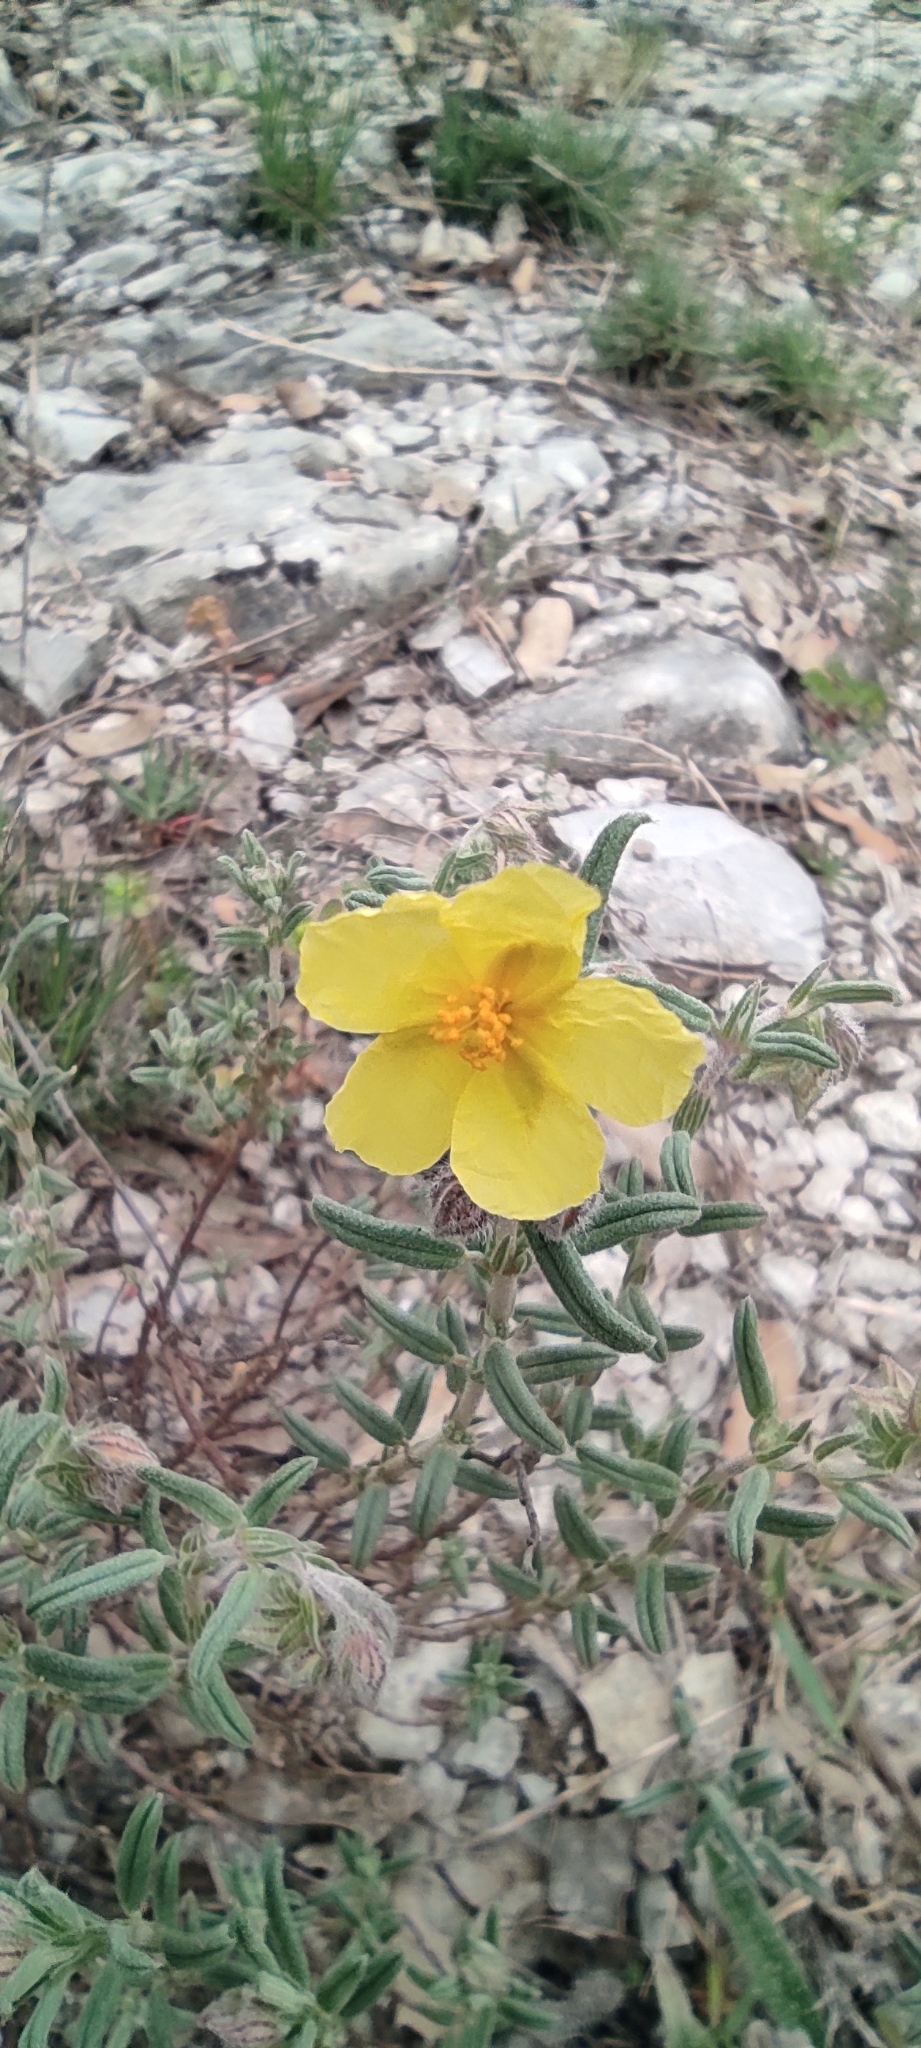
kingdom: Plantae
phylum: Tracheophyta
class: Magnoliopsida
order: Malvales
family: Cistaceae
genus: Helianthemum
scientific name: Helianthemum nummularium
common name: Common rock-rose
